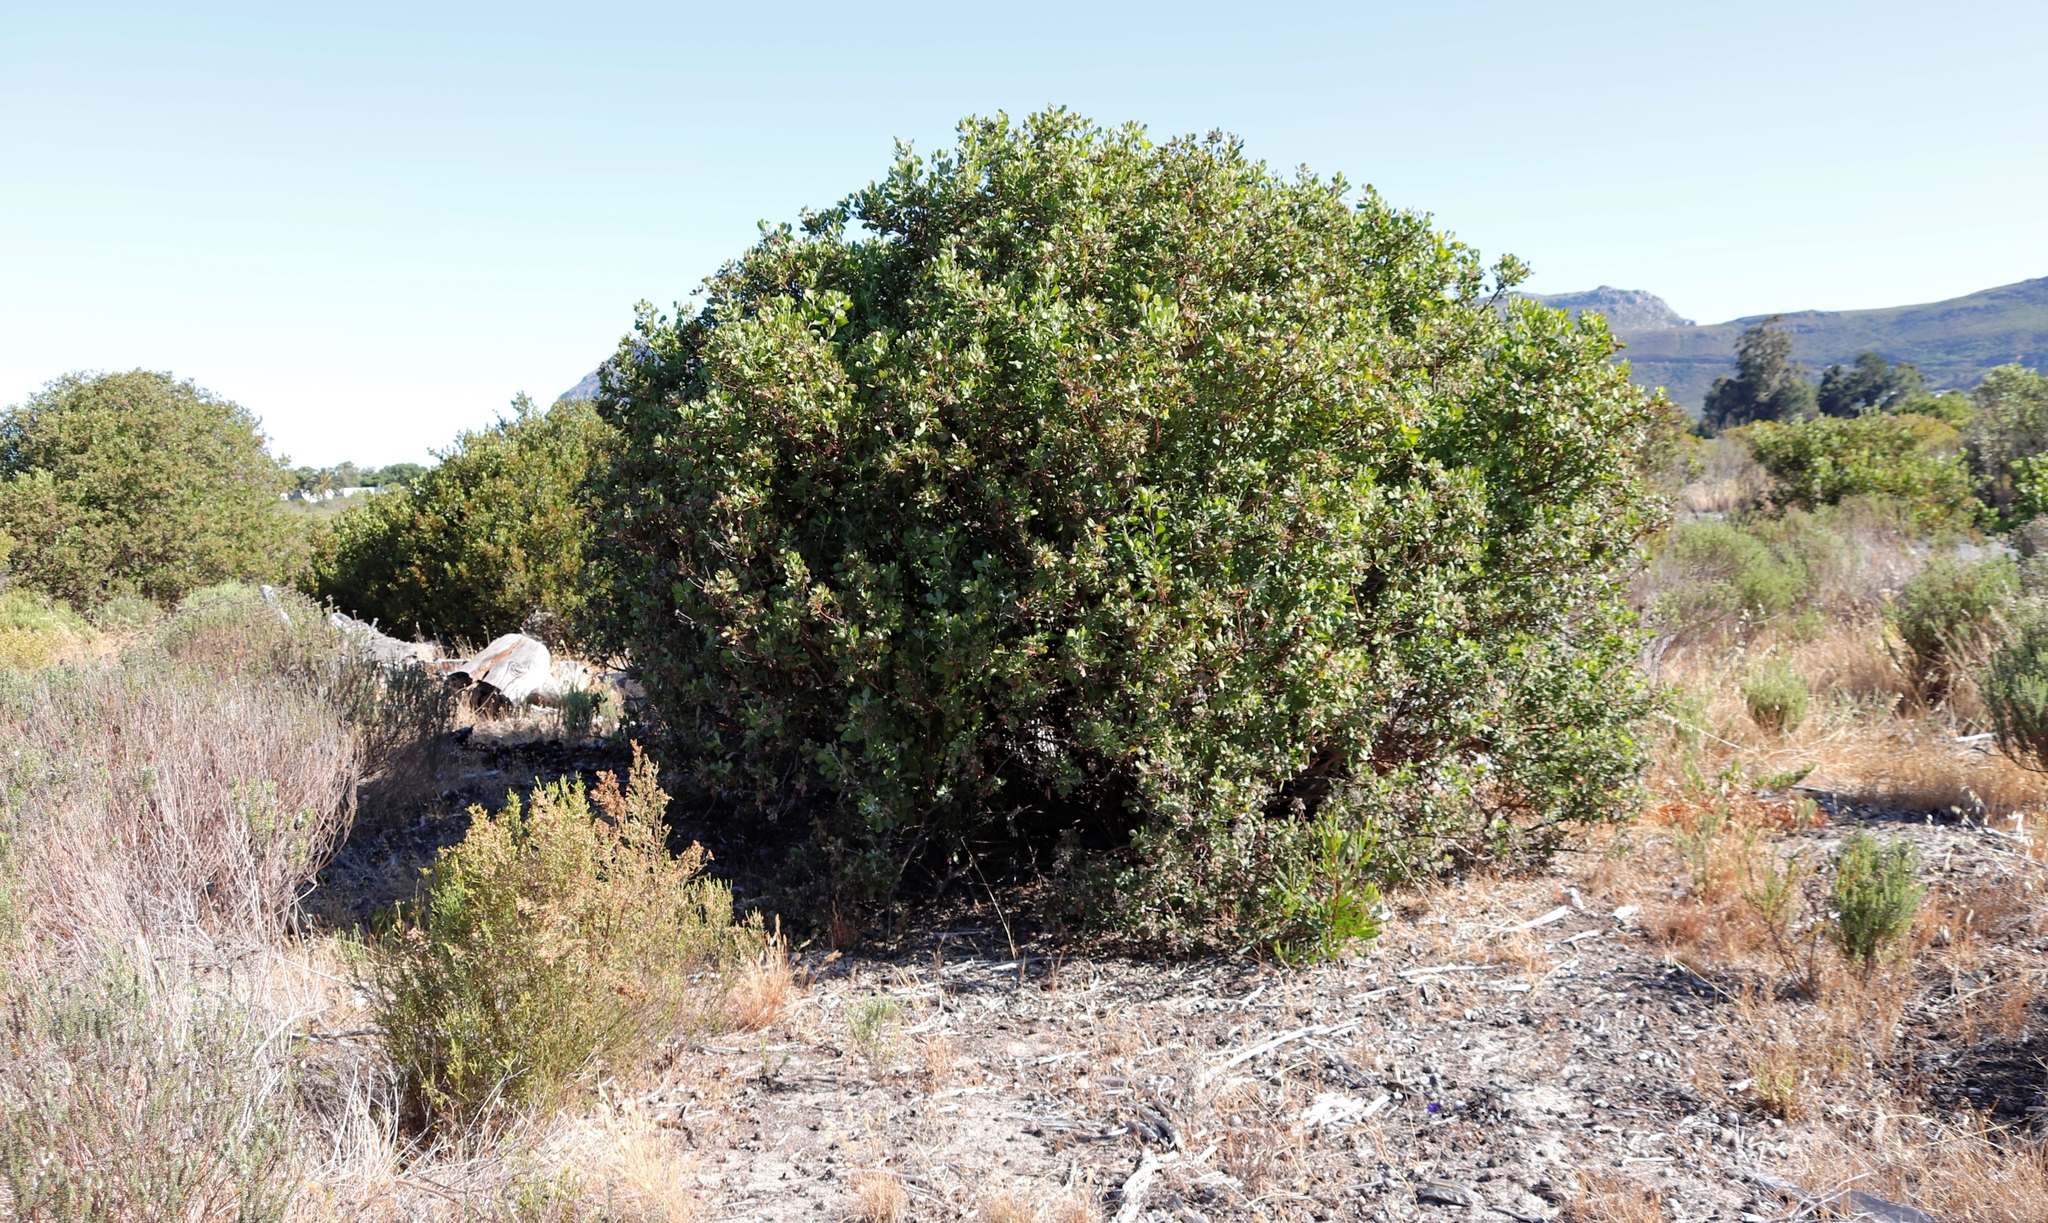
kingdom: Plantae
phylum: Tracheophyta
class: Magnoliopsida
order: Asterales
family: Asteraceae
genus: Osteospermum
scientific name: Osteospermum moniliferum
